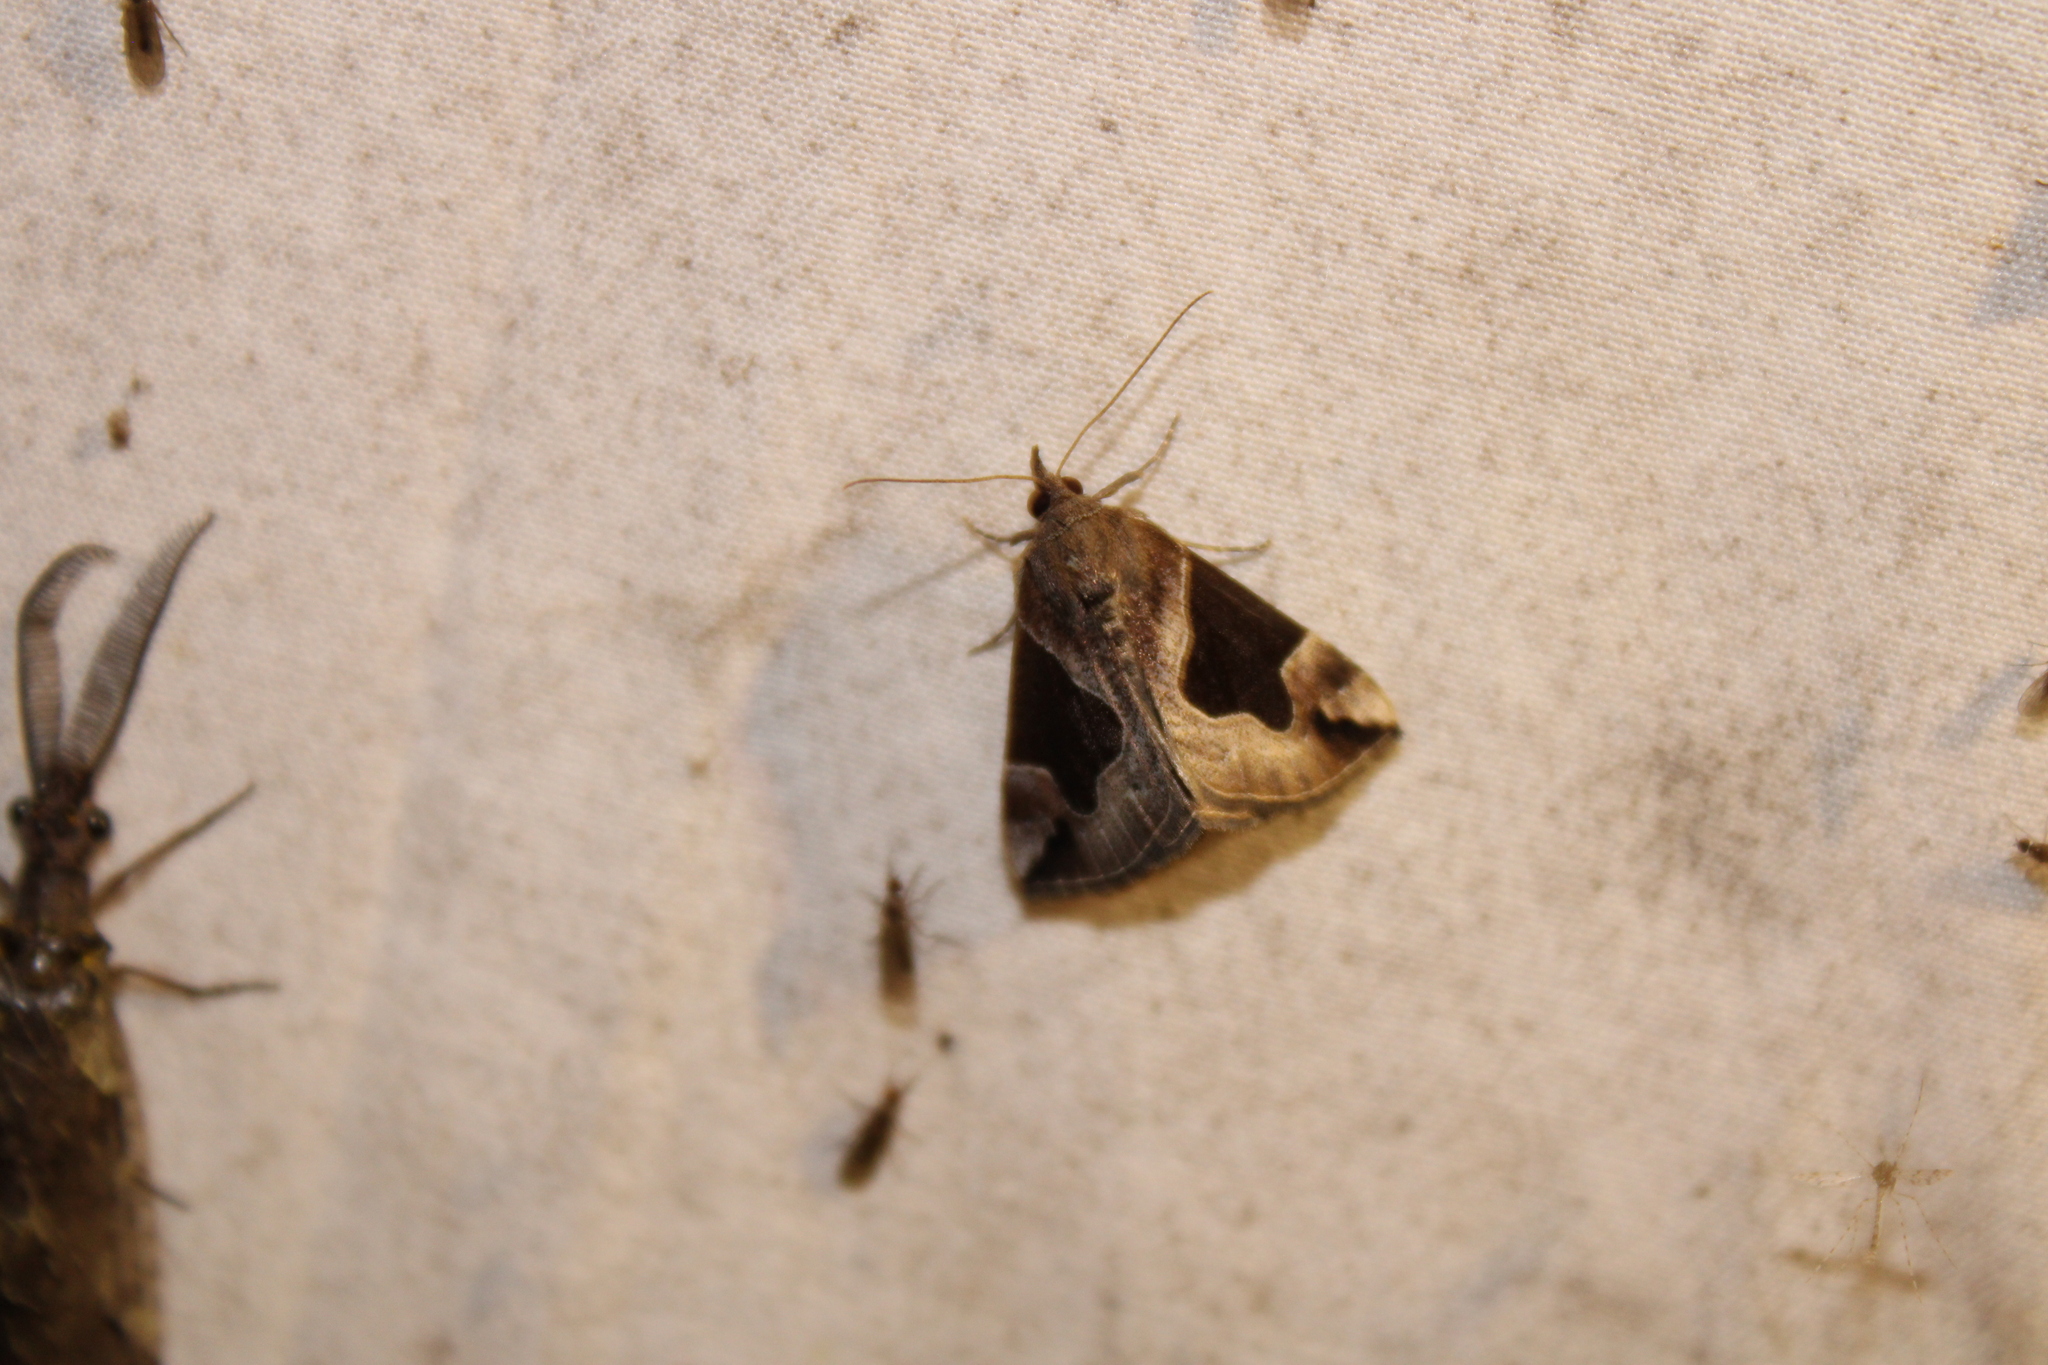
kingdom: Animalia
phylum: Arthropoda
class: Insecta
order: Lepidoptera
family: Erebidae
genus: Hypena
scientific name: Hypena manalis
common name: Flowing-line bomolocha moth
